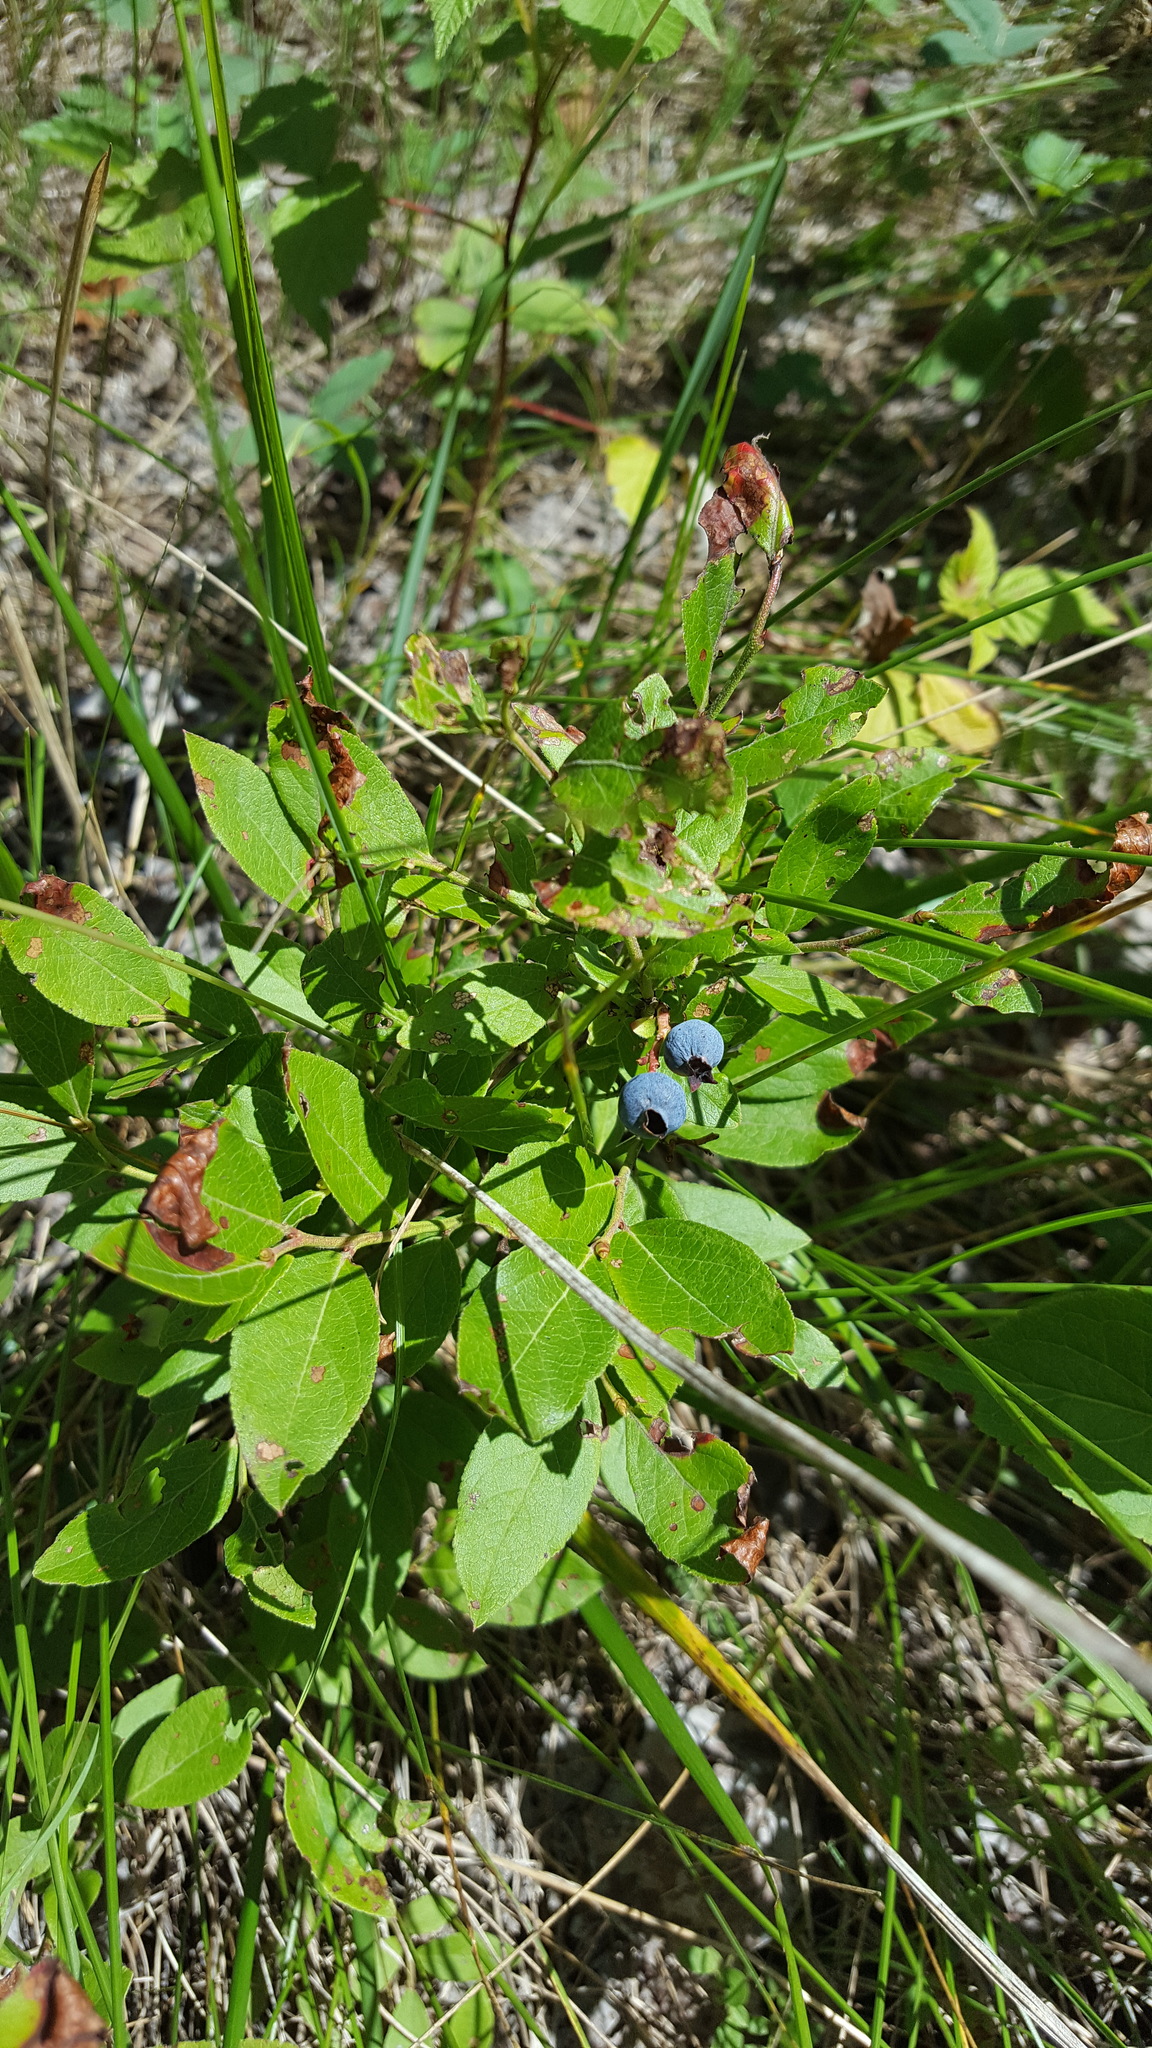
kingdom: Plantae
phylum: Tracheophyta
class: Magnoliopsida
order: Ericales
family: Ericaceae
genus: Vaccinium
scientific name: Vaccinium angustifolium
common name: Early lowbush blueberry
